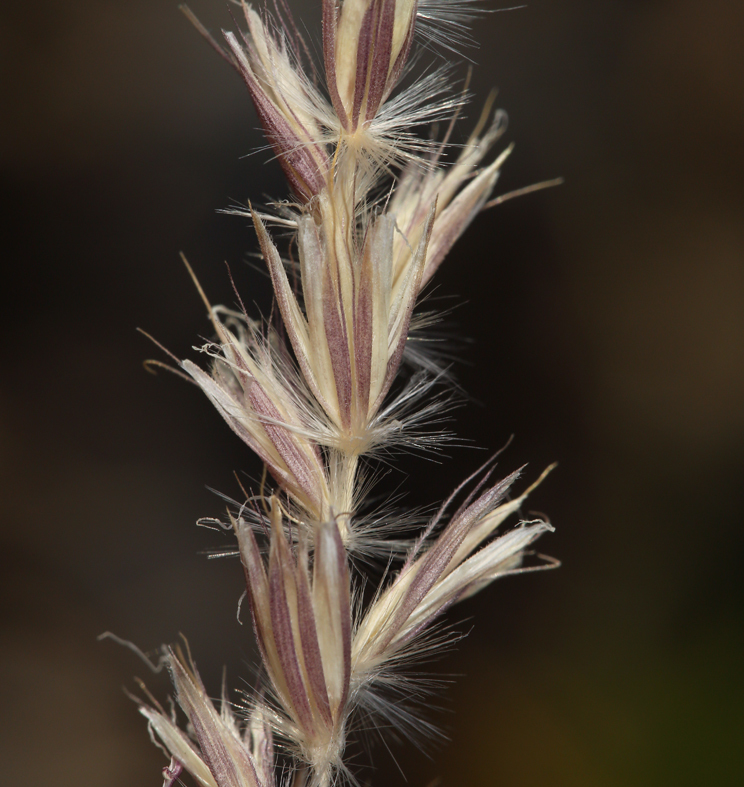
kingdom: Plantae
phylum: Tracheophyta
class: Liliopsida
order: Poales
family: Poaceae
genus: Hilaria
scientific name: Hilaria jamesii
